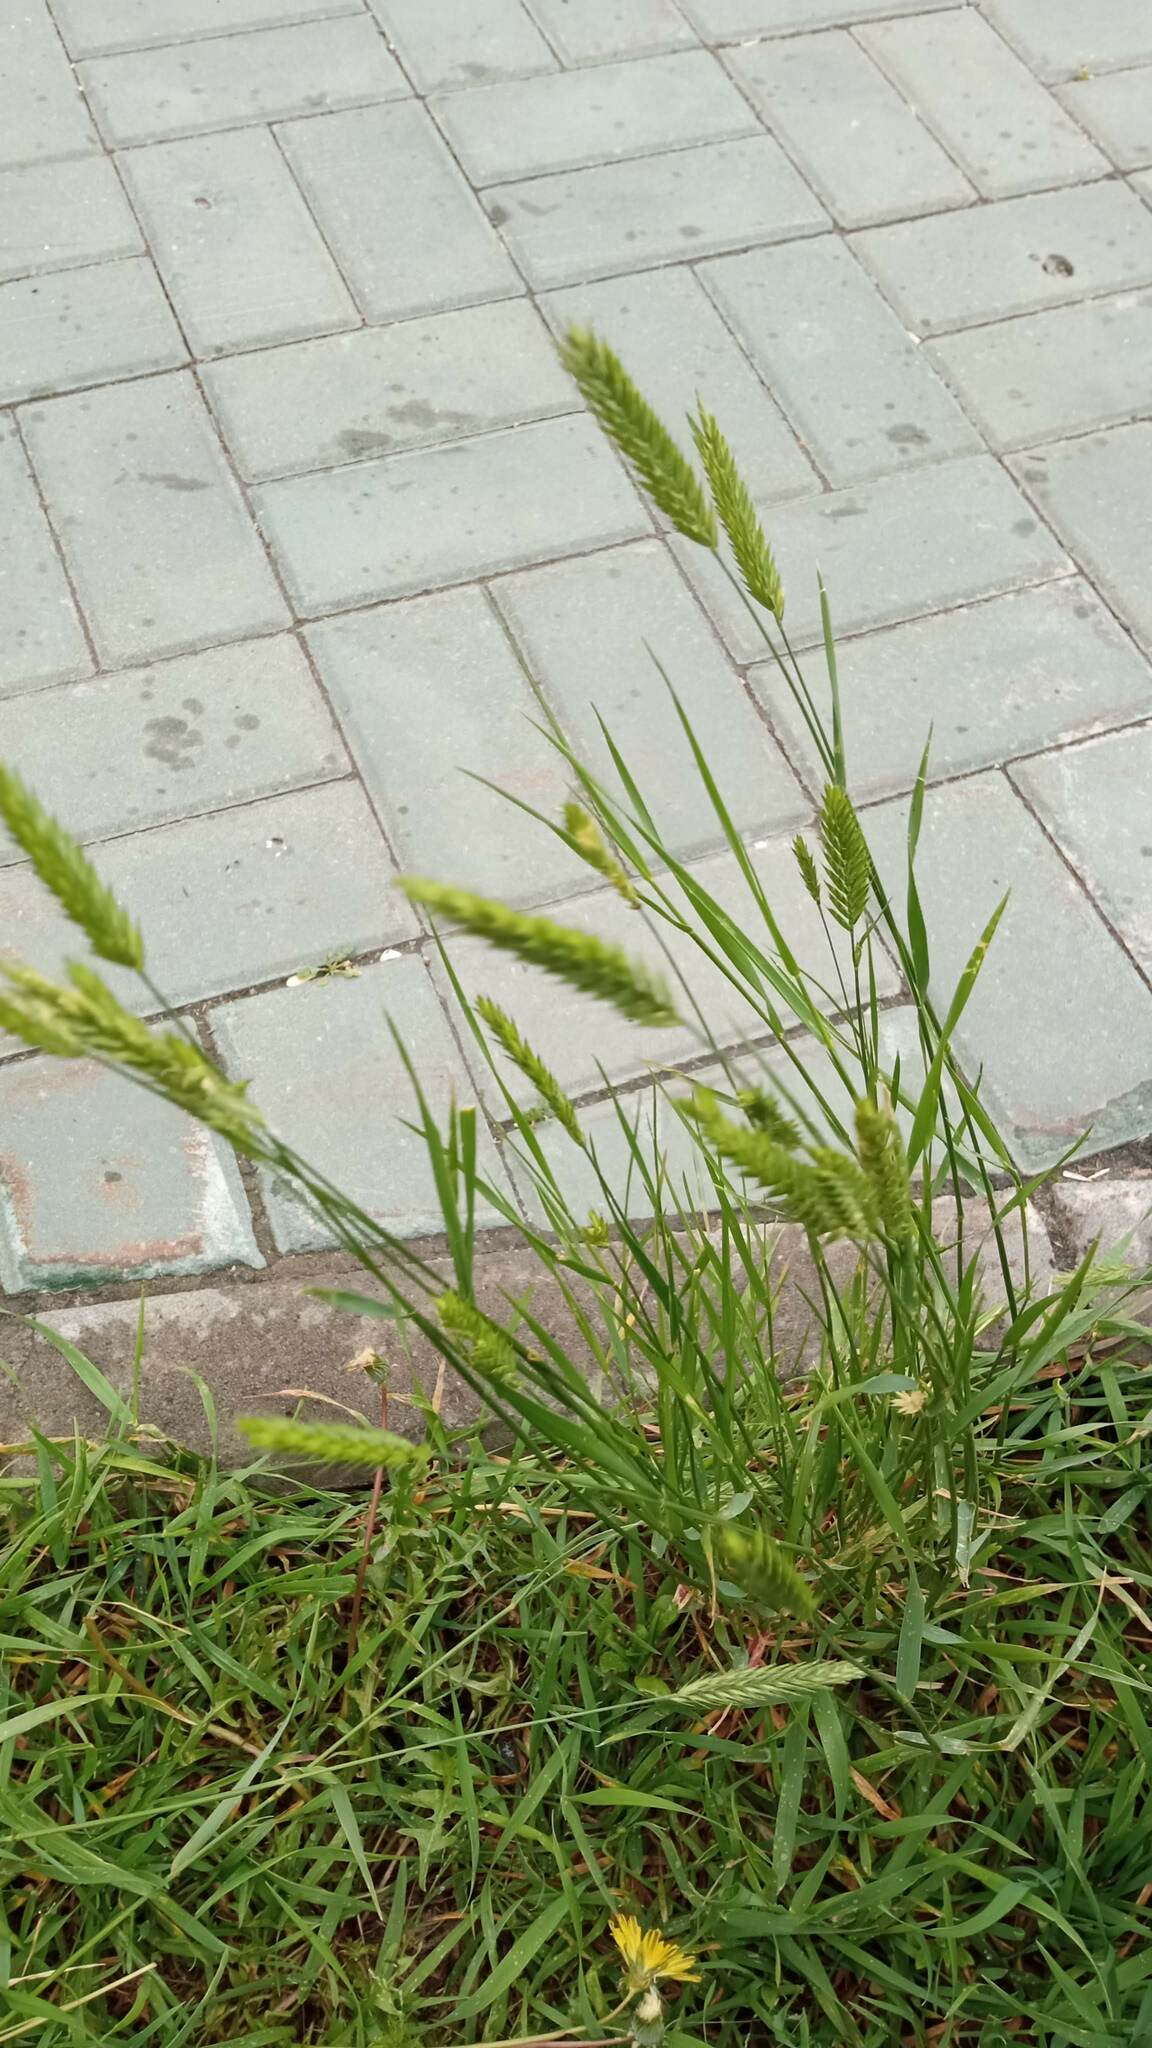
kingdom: Plantae
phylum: Tracheophyta
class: Liliopsida
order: Poales
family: Poaceae
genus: Agropyron
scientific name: Agropyron cristatum
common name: Crested wheatgrass
